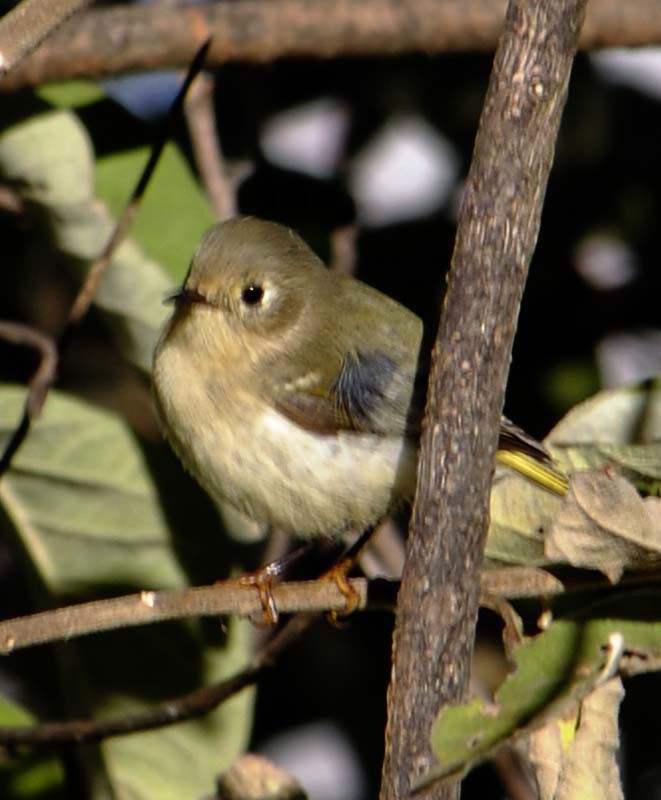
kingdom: Animalia
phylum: Chordata
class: Aves
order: Passeriformes
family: Regulidae
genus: Regulus
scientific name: Regulus calendula
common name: Ruby-crowned kinglet
